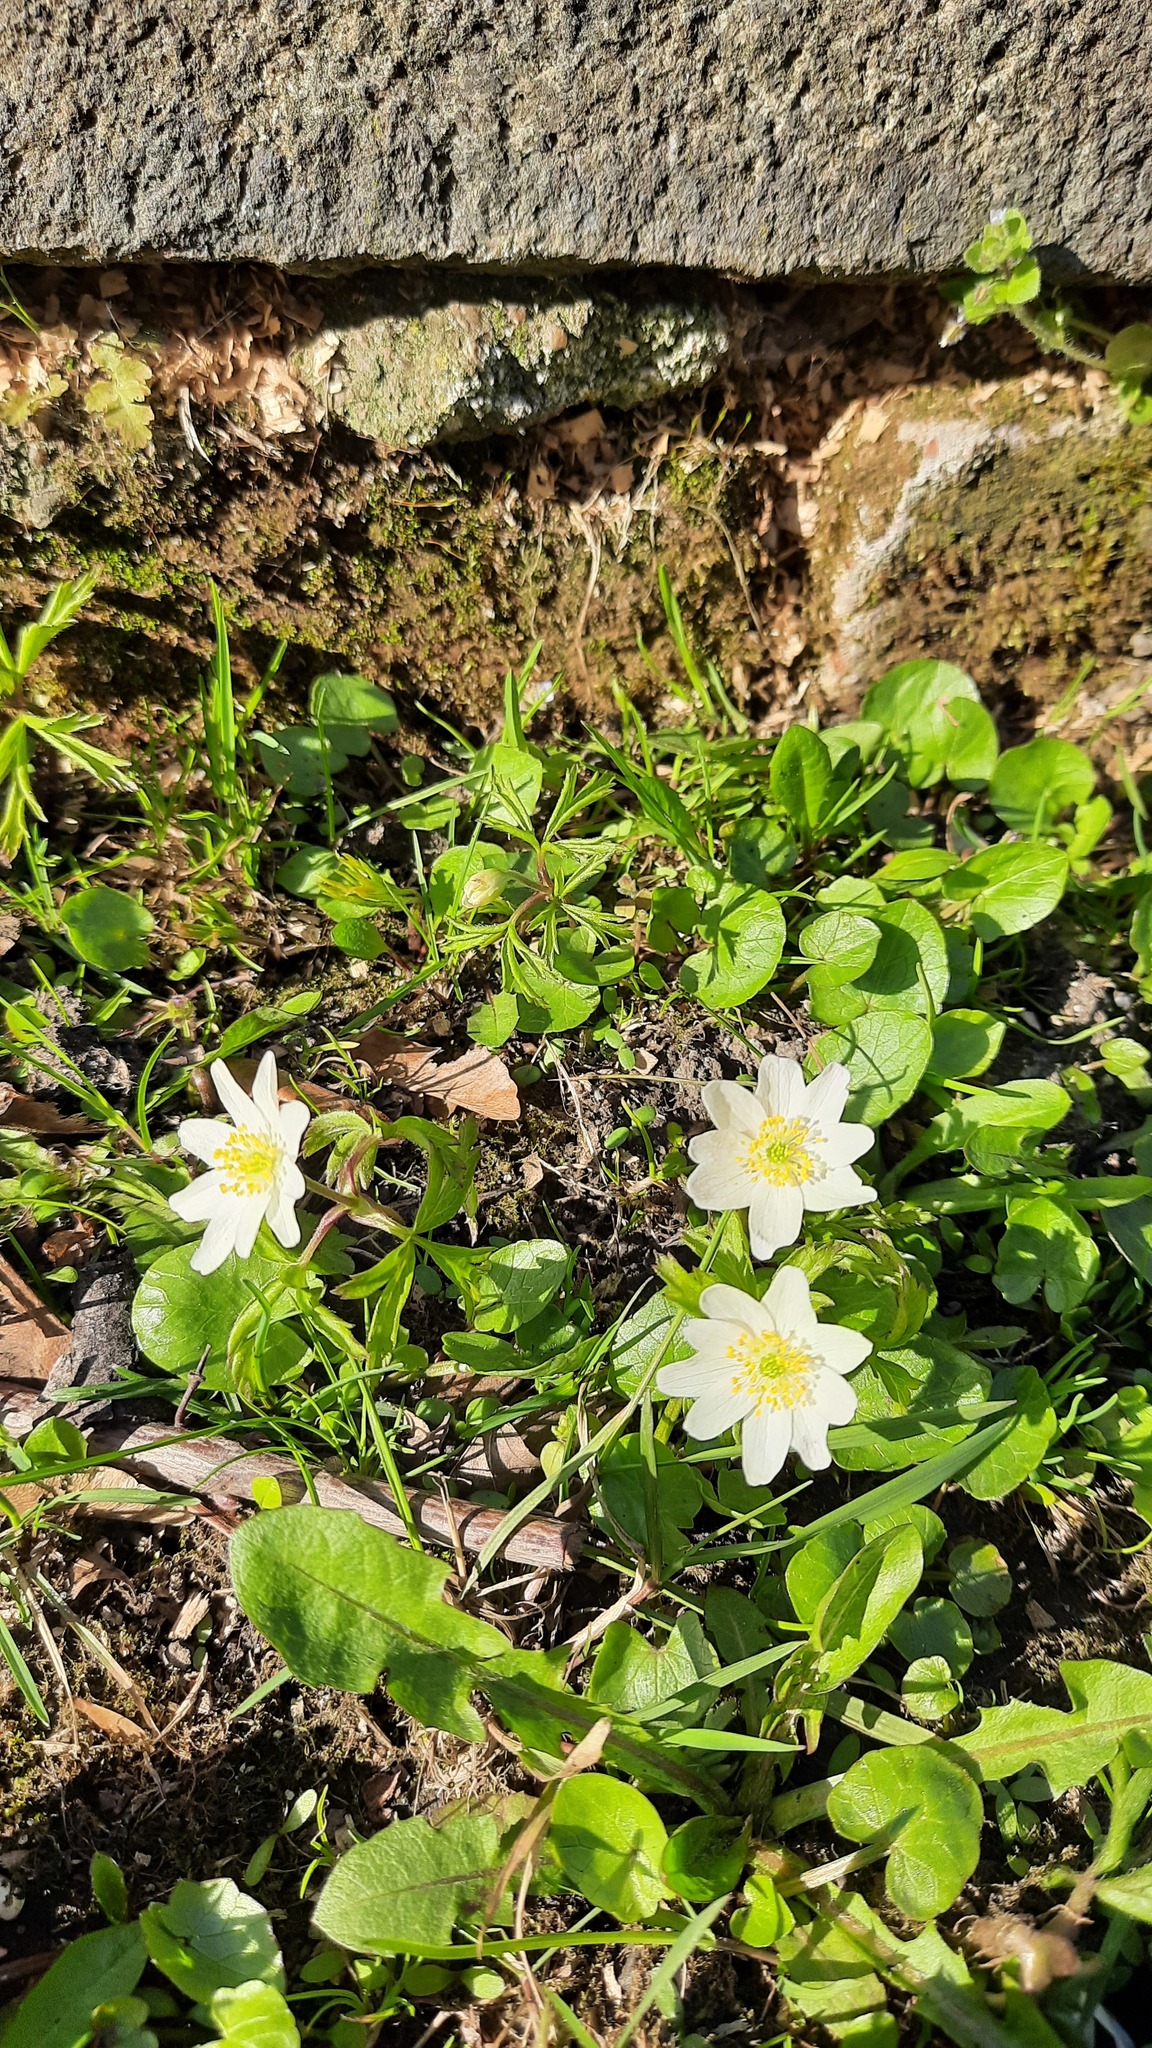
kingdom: Plantae
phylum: Tracheophyta
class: Magnoliopsida
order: Ranunculales
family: Ranunculaceae
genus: Anemone
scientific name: Anemone nemorosa
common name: Wood anemone
